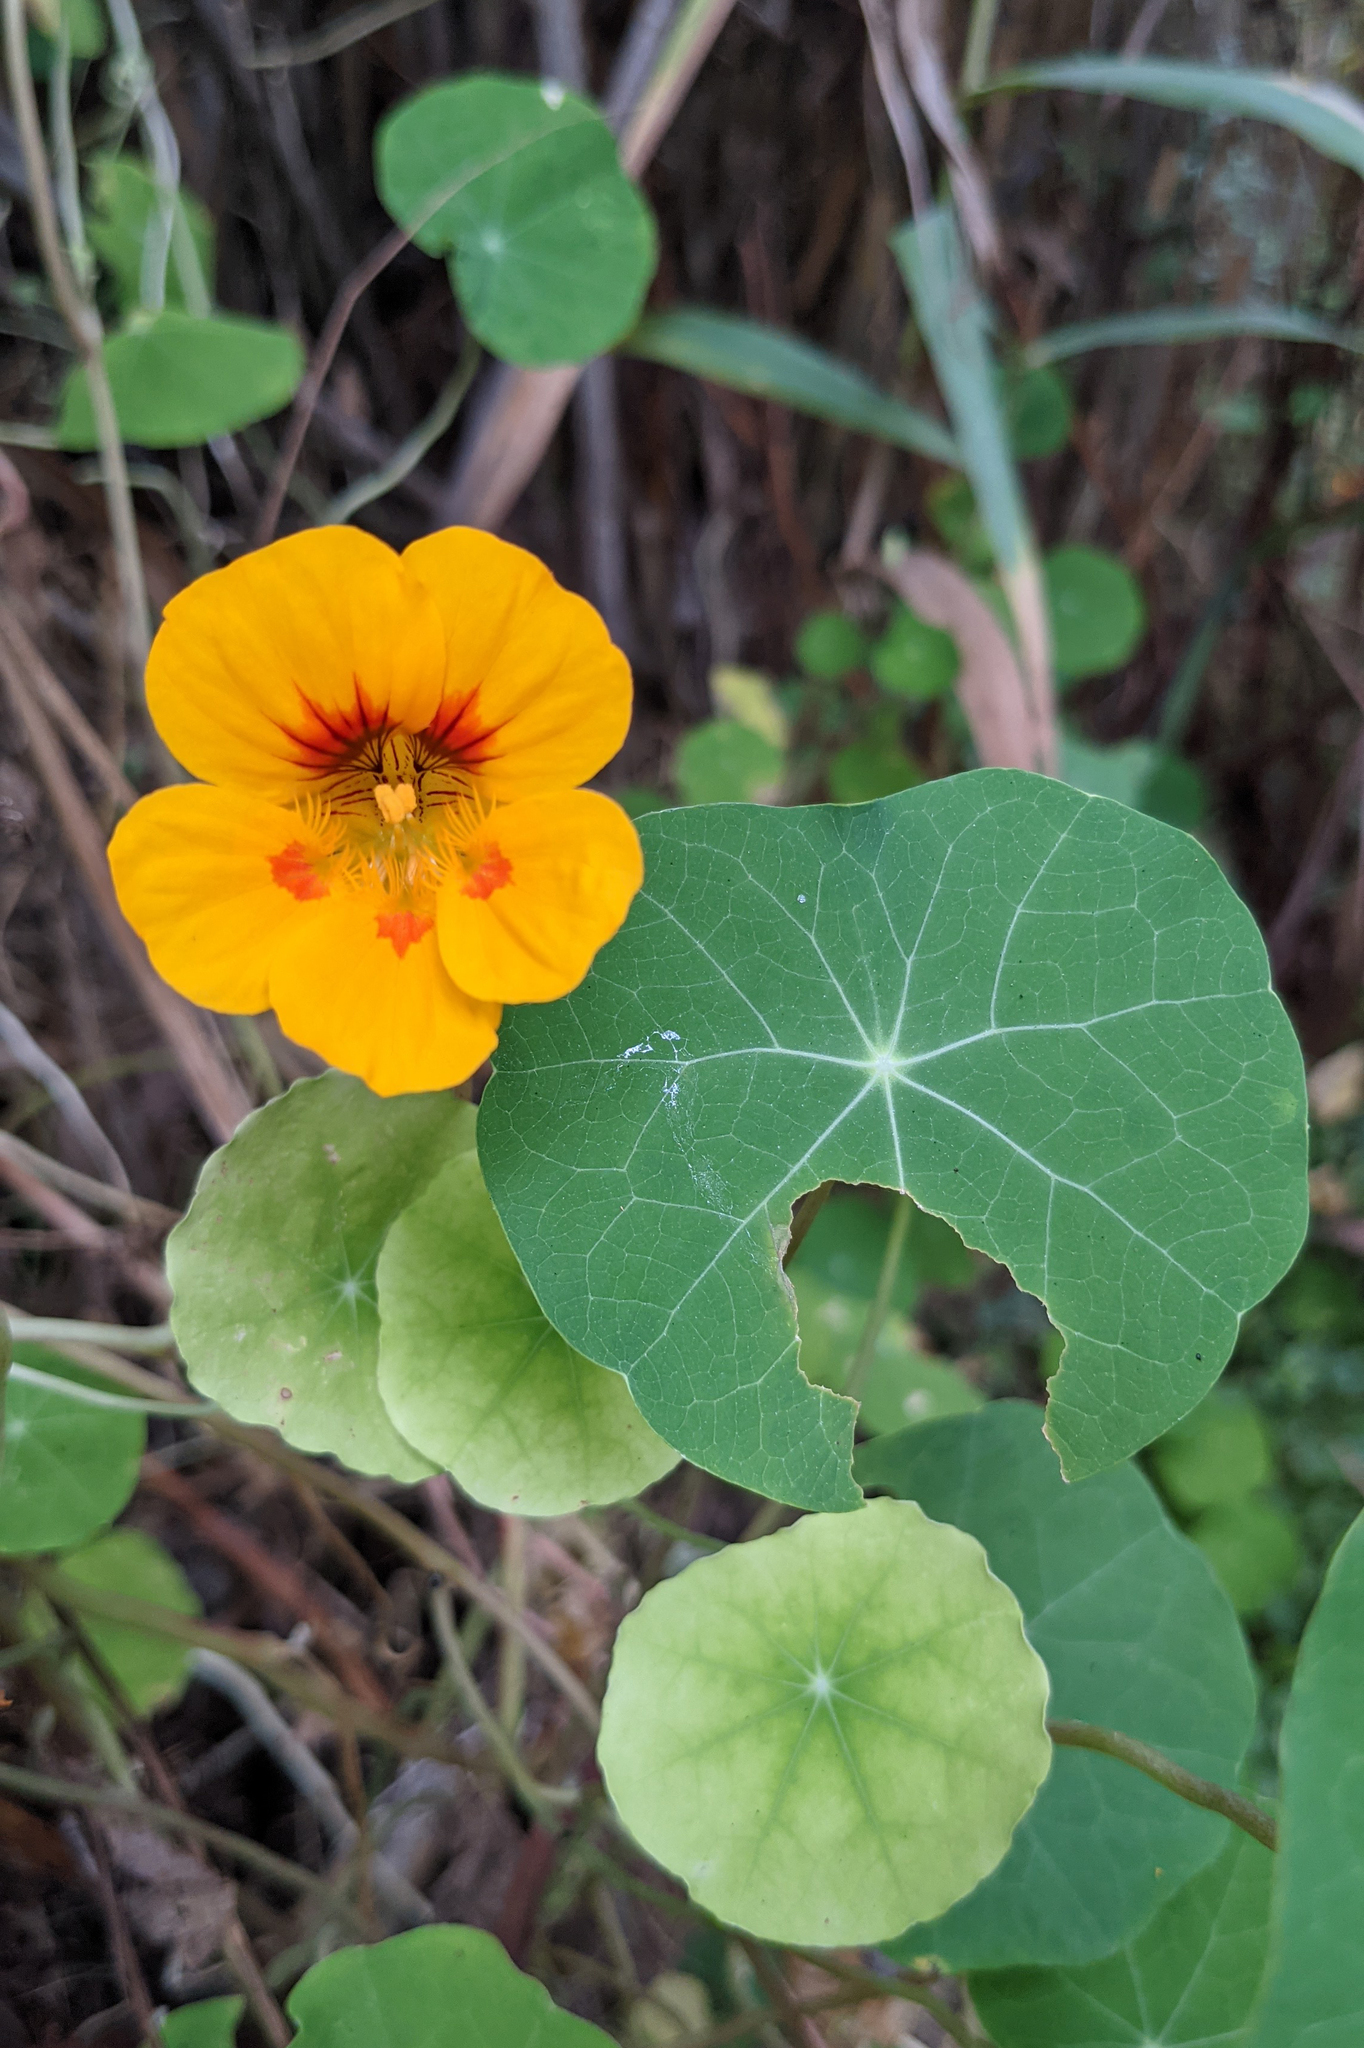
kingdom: Plantae
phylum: Tracheophyta
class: Magnoliopsida
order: Brassicales
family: Tropaeolaceae
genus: Tropaeolum
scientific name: Tropaeolum majus
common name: Nasturtium
